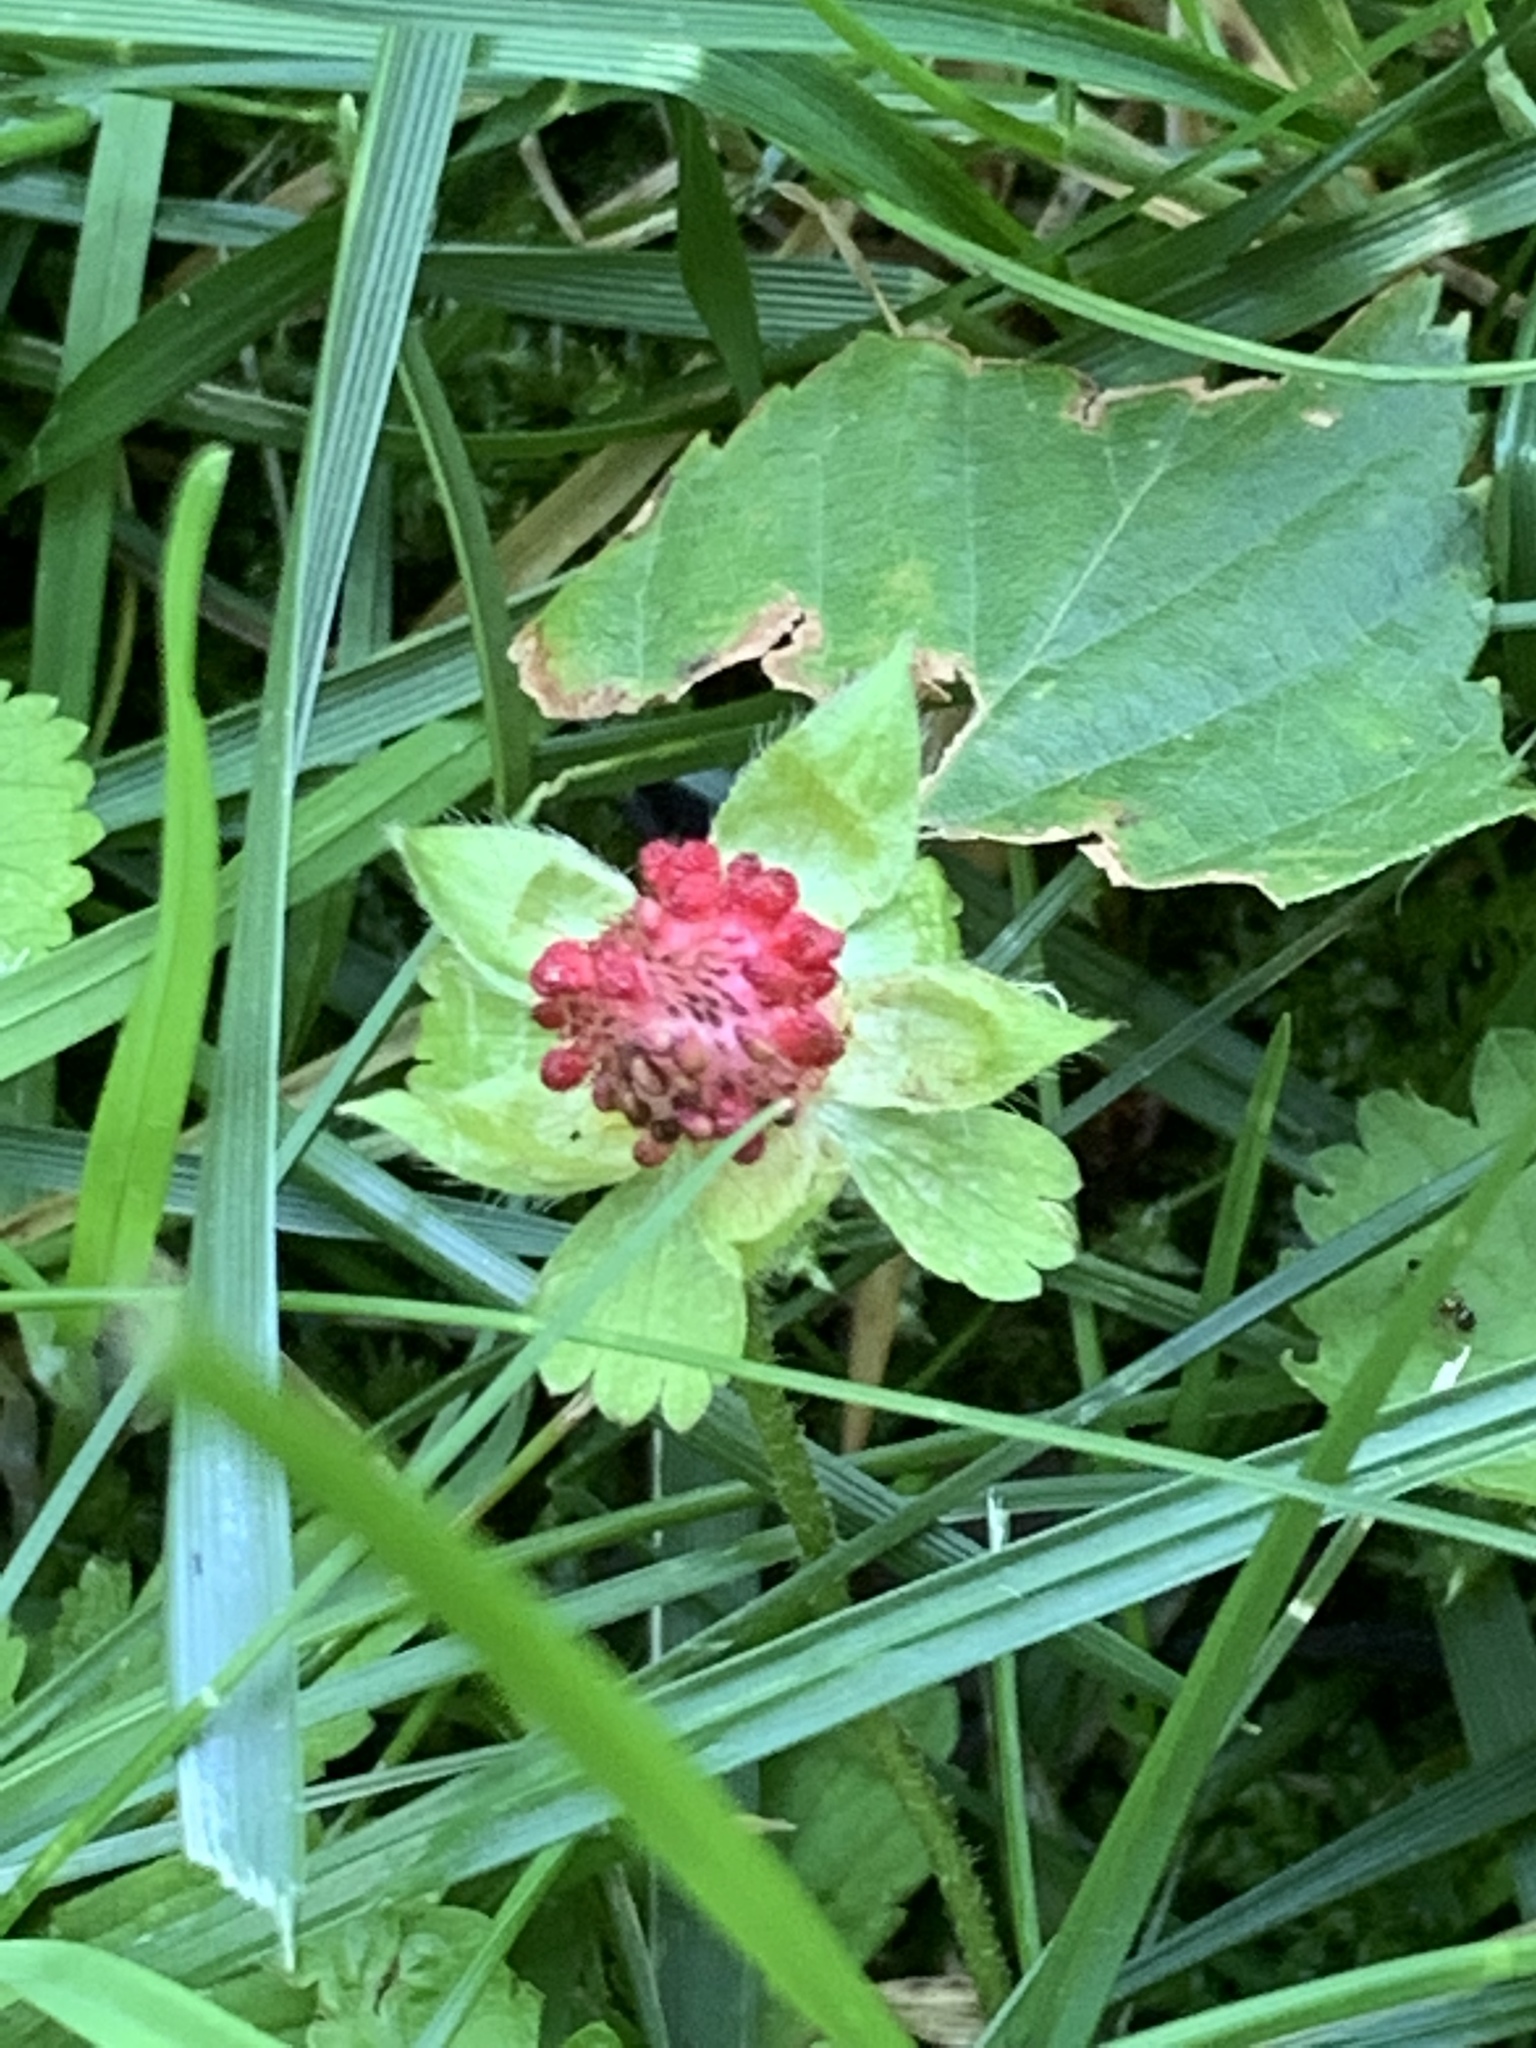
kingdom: Plantae
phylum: Tracheophyta
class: Magnoliopsida
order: Rosales
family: Rosaceae
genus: Potentilla
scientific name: Potentilla indica
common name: Yellow-flowered strawberry
